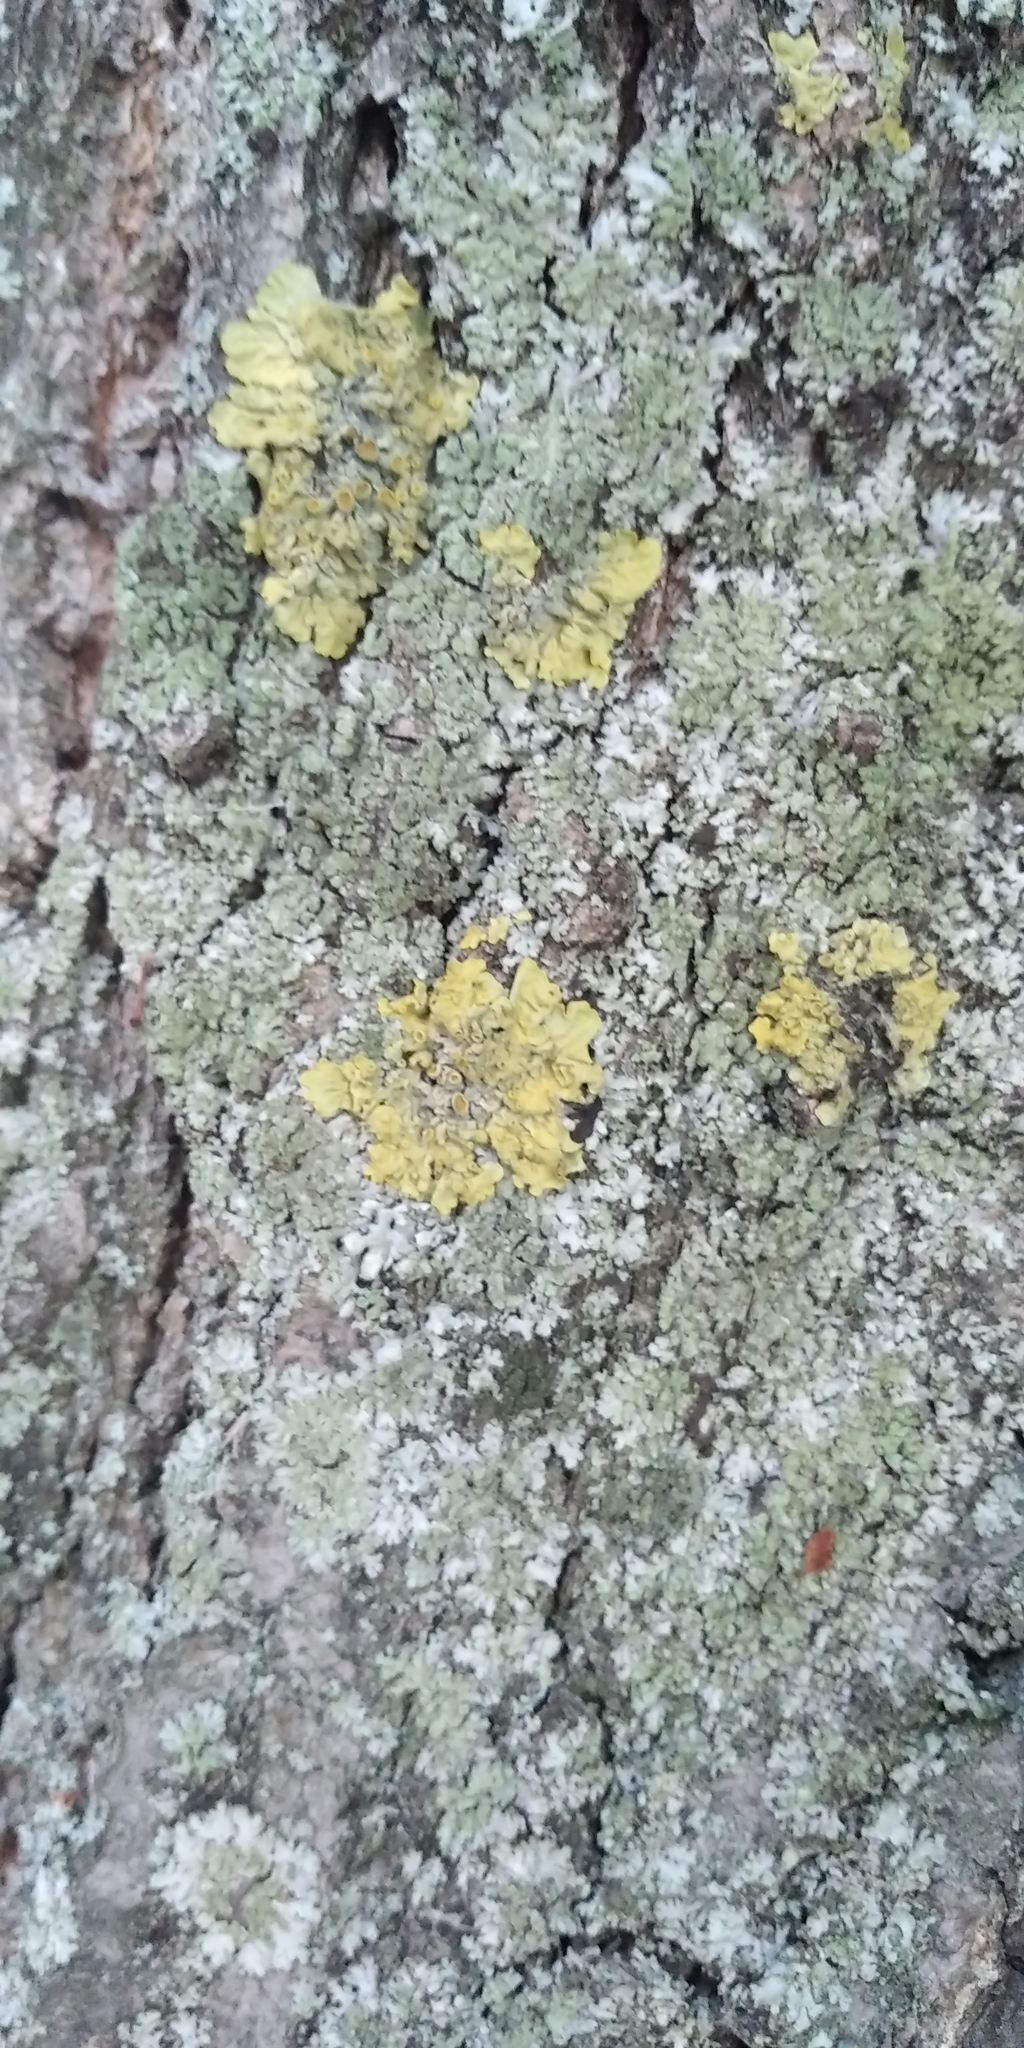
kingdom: Fungi
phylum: Ascomycota
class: Lecanoromycetes
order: Teloschistales
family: Teloschistaceae
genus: Xanthoria
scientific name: Xanthoria parietina
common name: Common orange lichen
